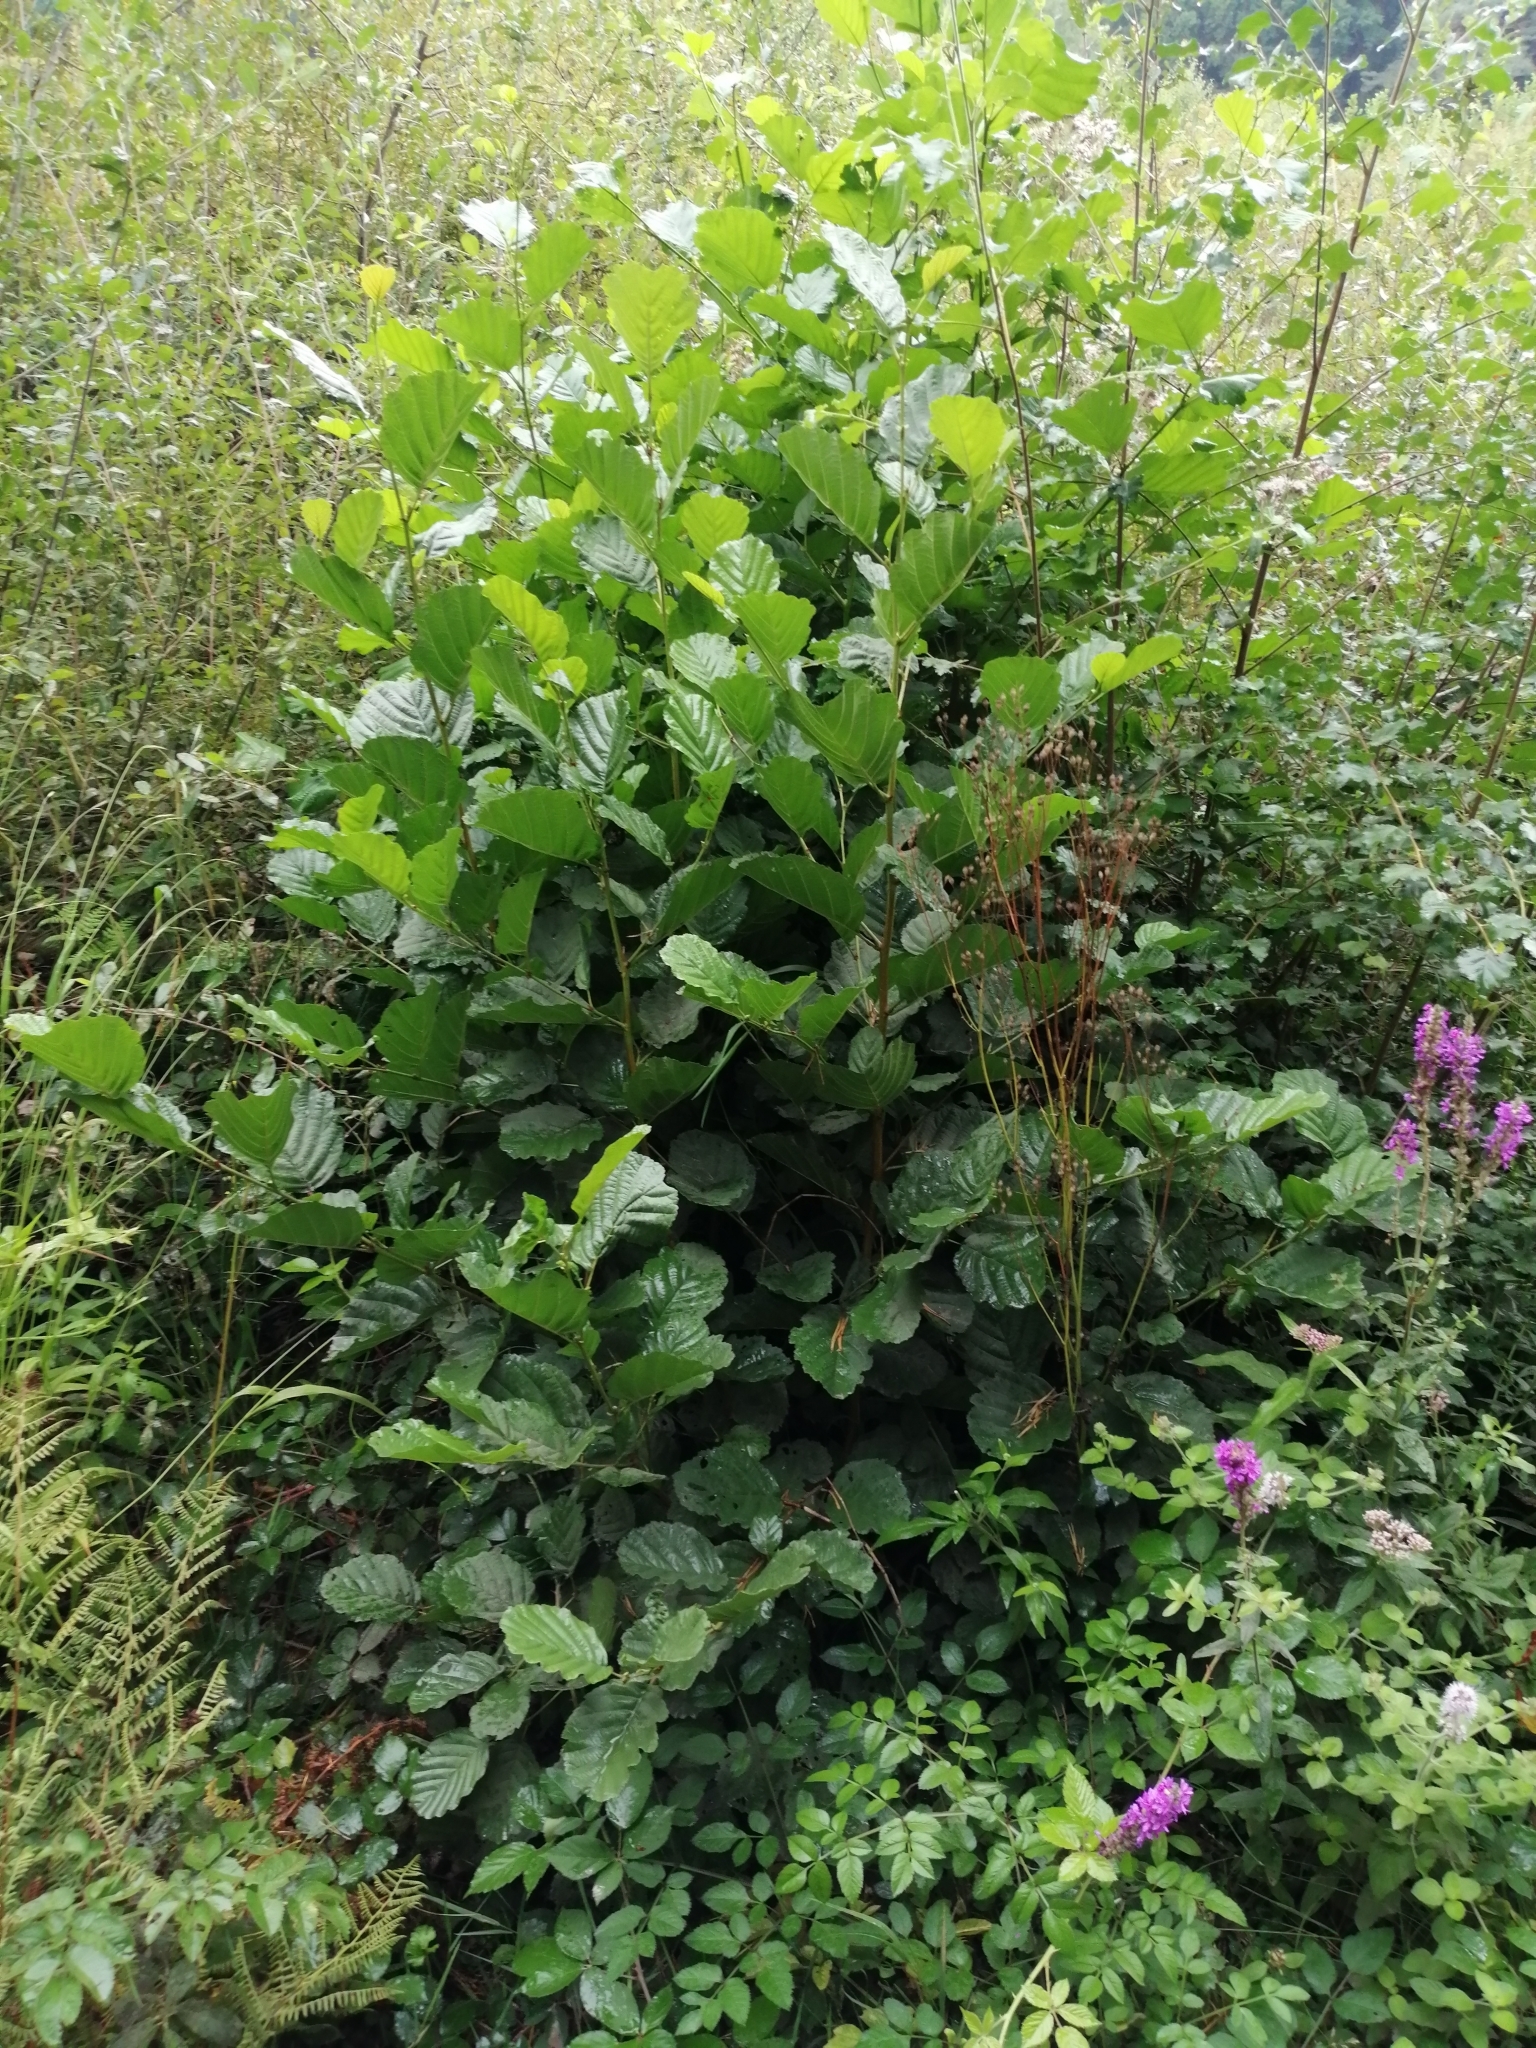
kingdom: Plantae
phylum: Tracheophyta
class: Magnoliopsida
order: Fagales
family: Betulaceae
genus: Alnus
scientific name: Alnus glutinosa
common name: Black alder
